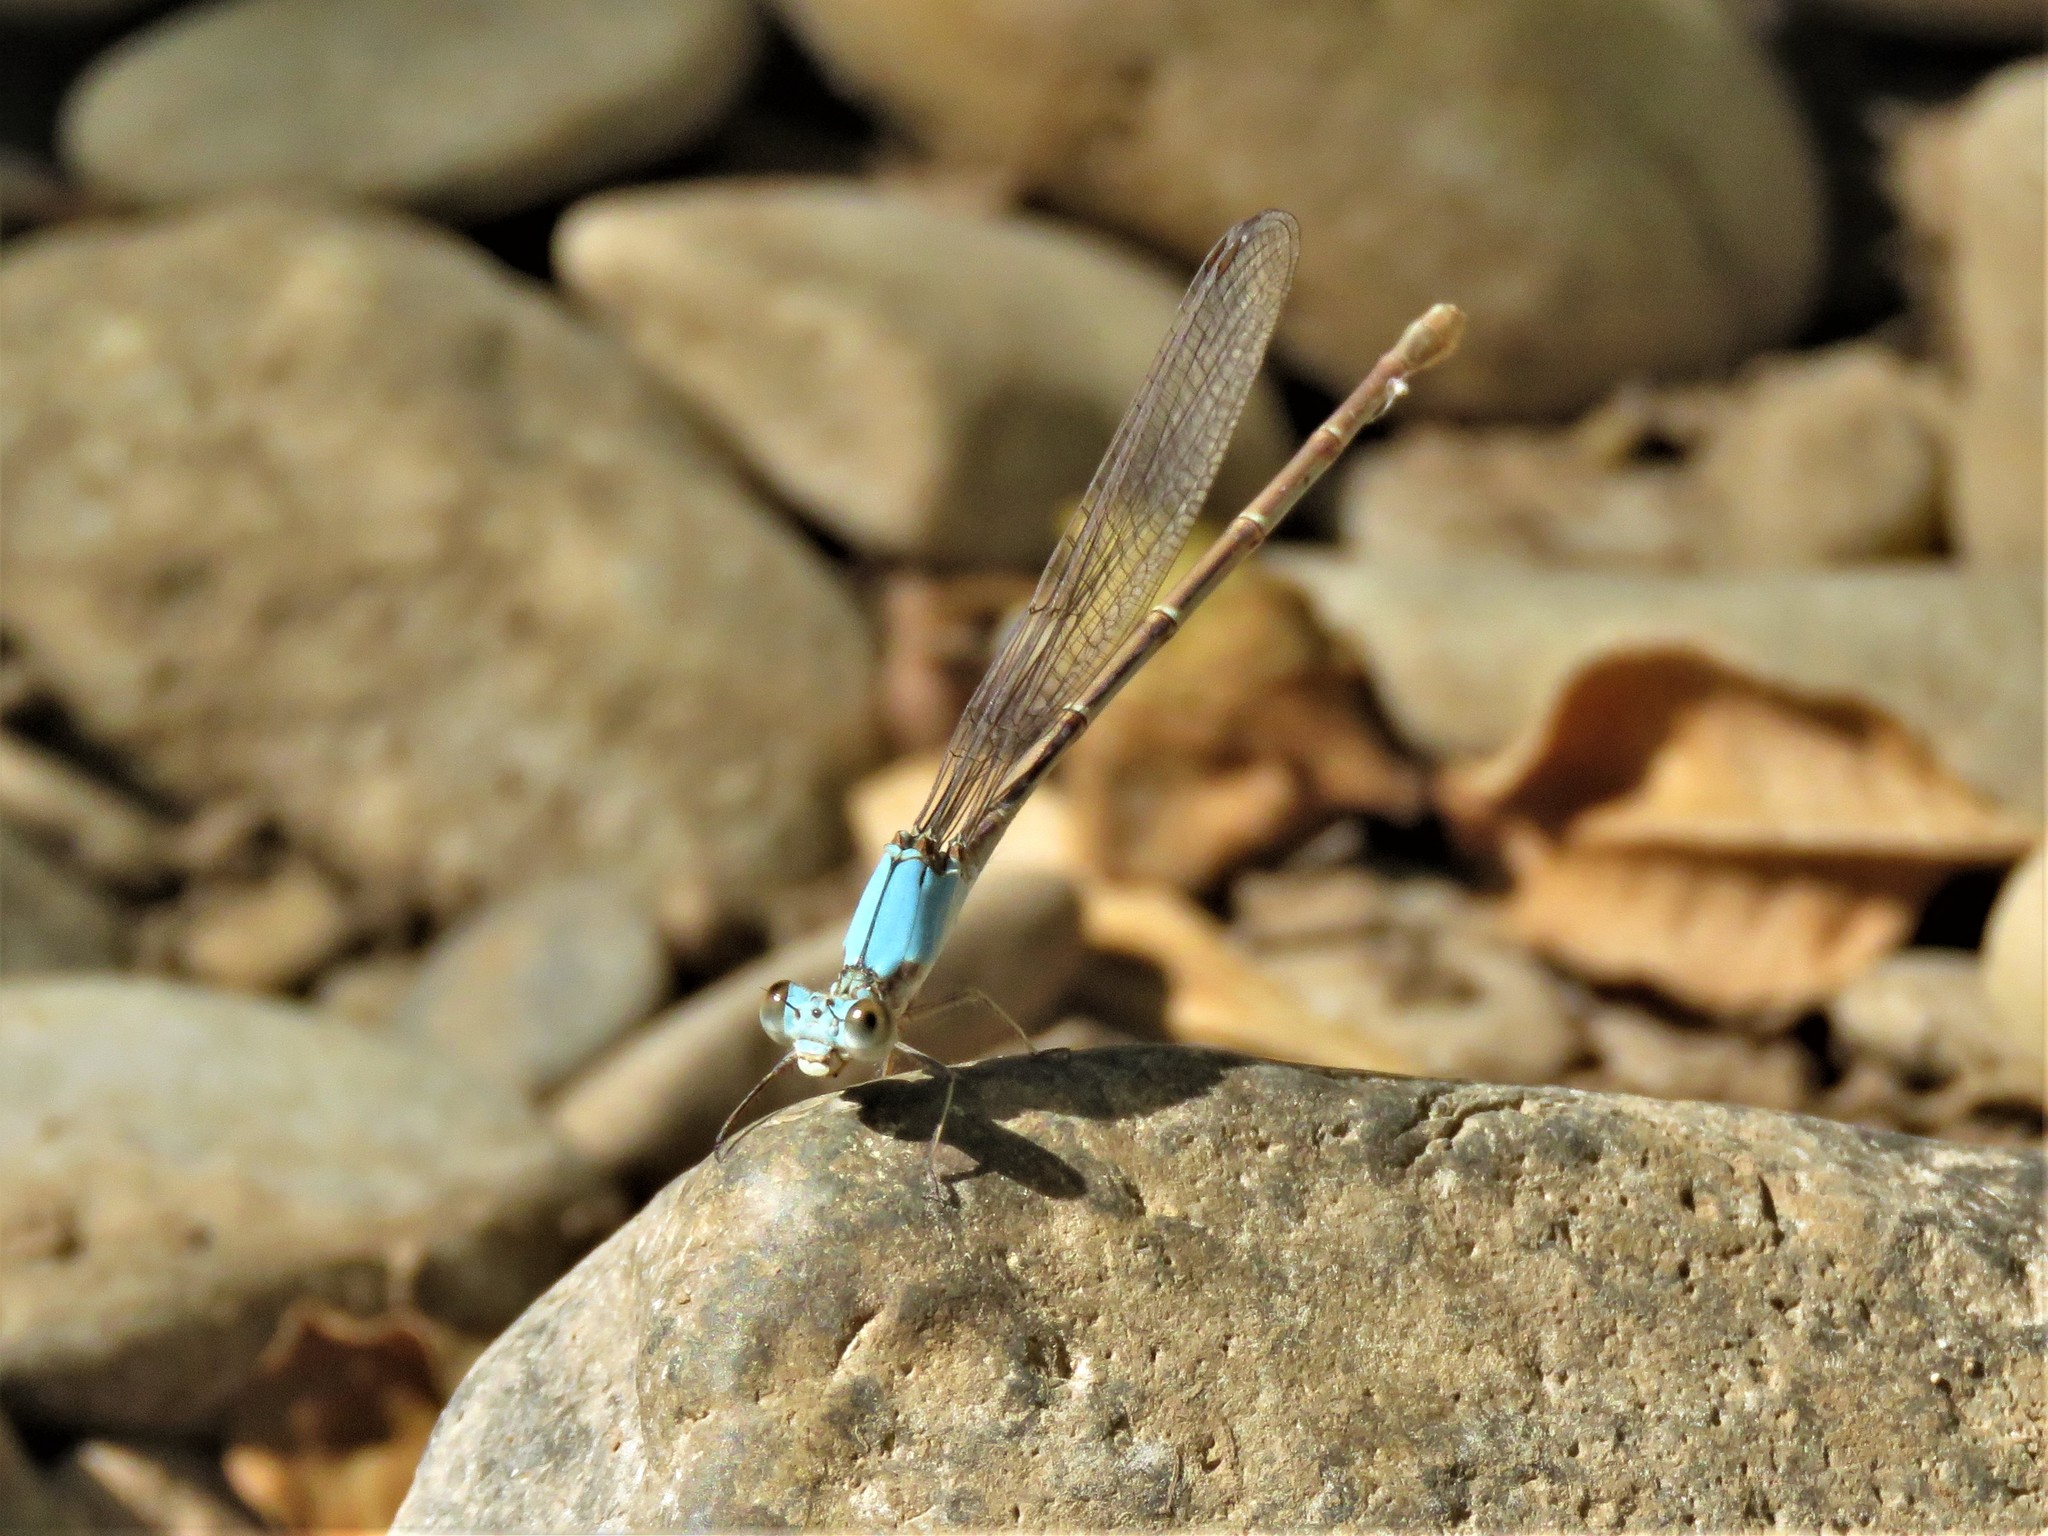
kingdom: Animalia
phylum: Arthropoda
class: Insecta
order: Odonata
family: Coenagrionidae
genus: Argia
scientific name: Argia moesta
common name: Powdered dancer
